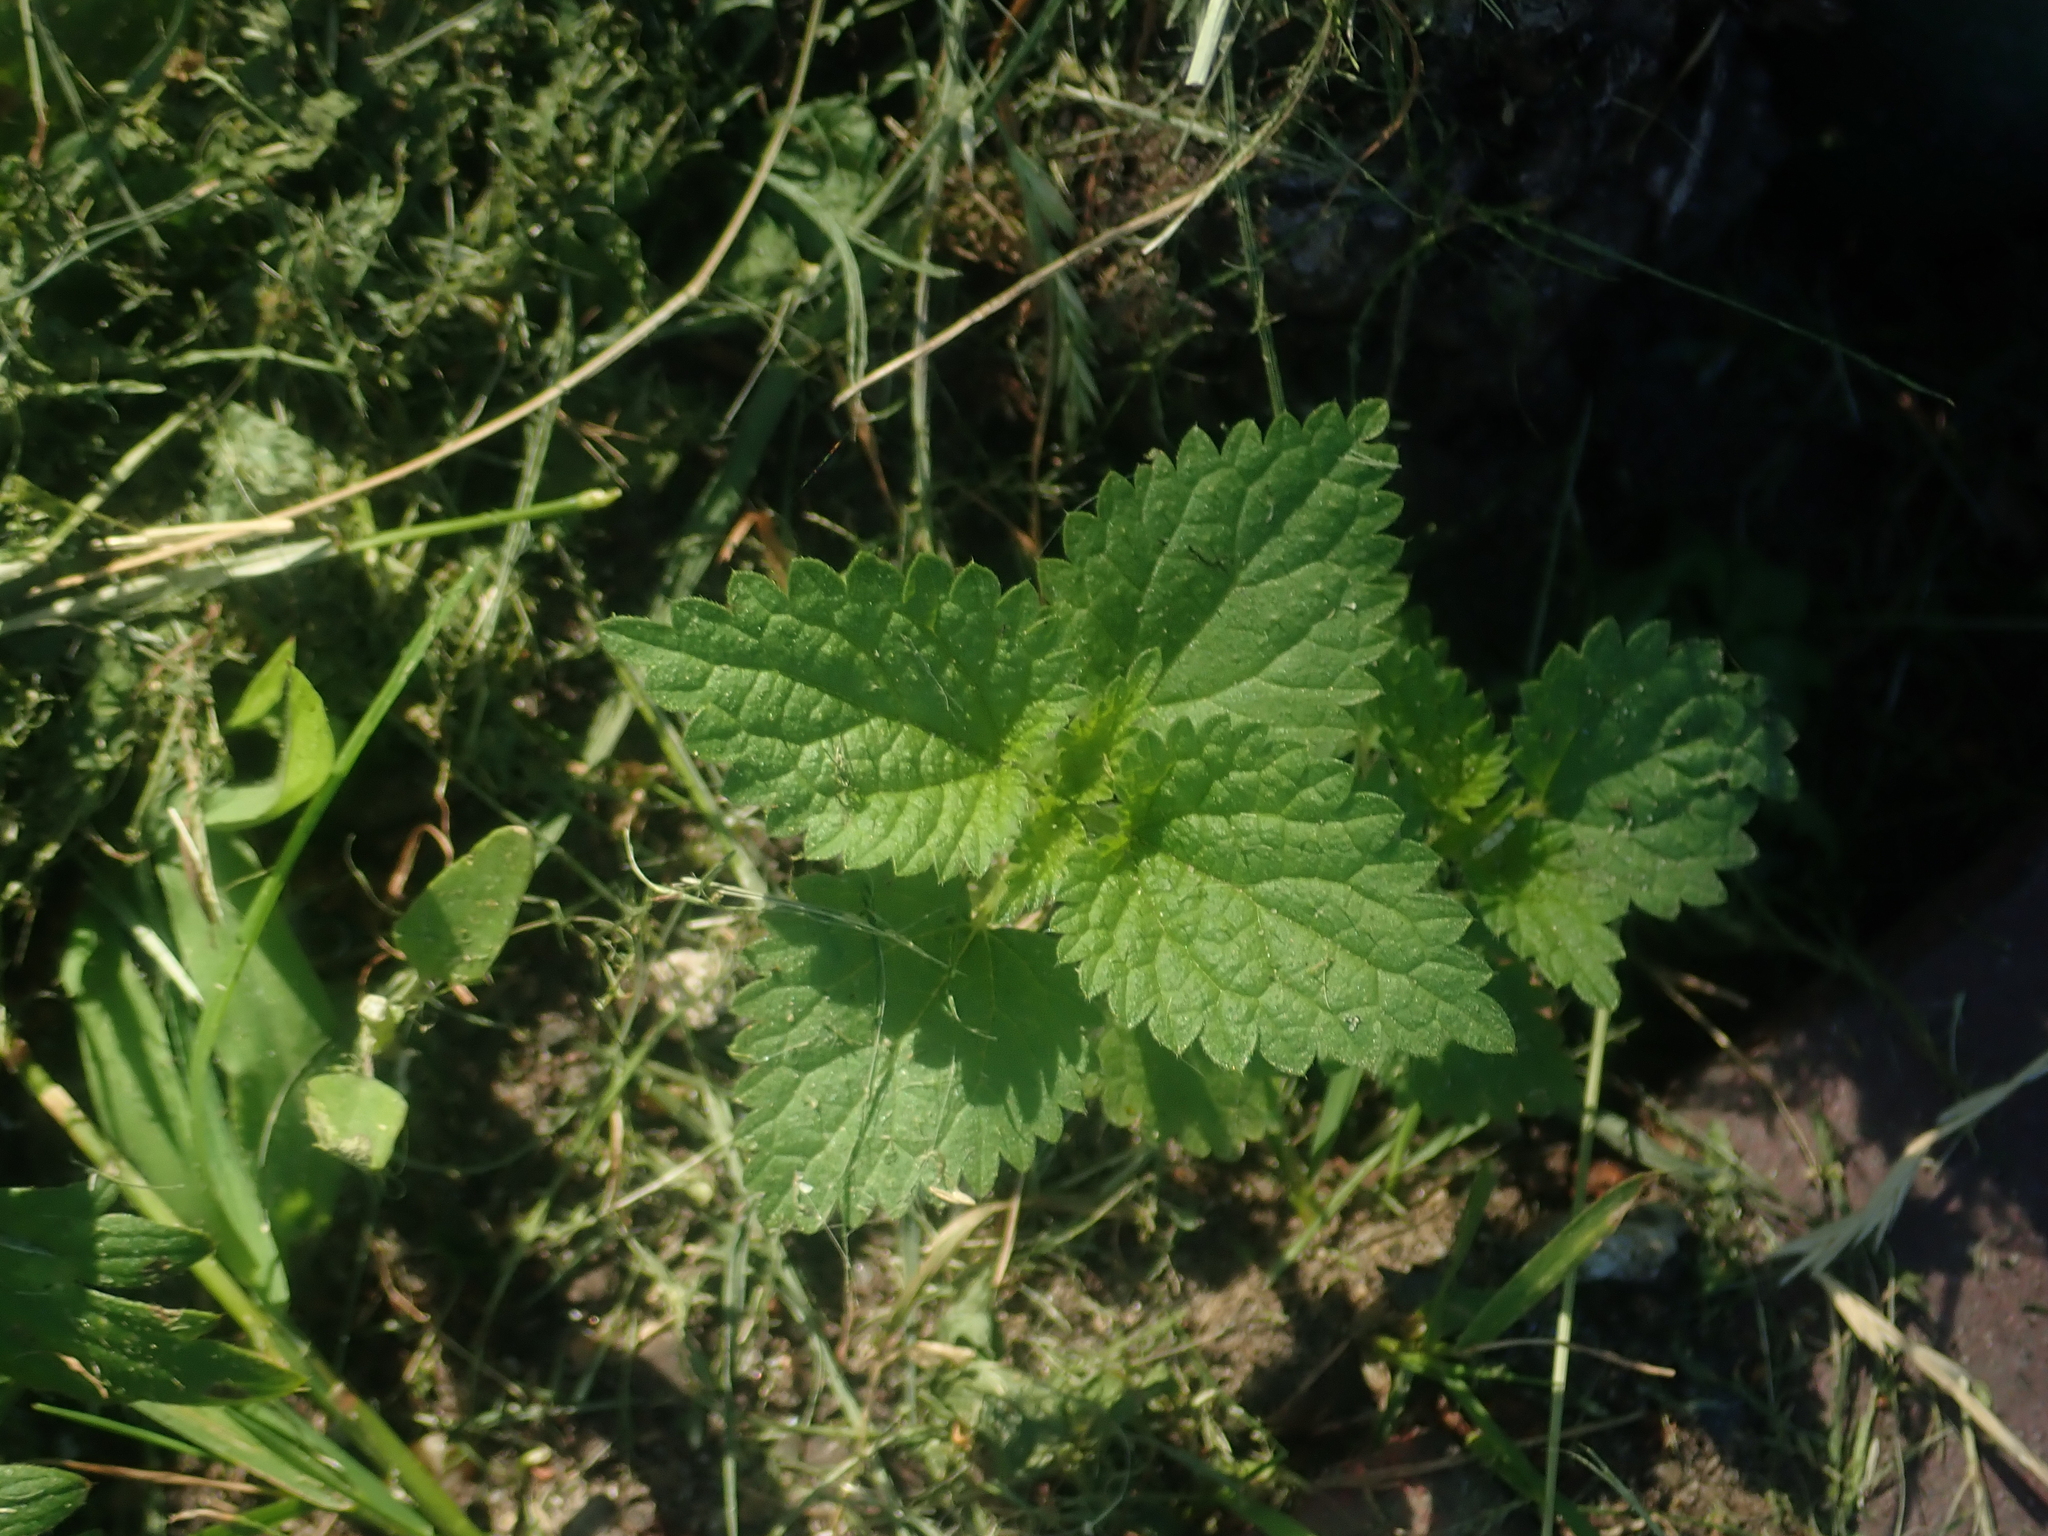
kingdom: Plantae
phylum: Tracheophyta
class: Magnoliopsida
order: Rosales
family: Urticaceae
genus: Urtica
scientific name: Urtica dioica
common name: Common nettle
